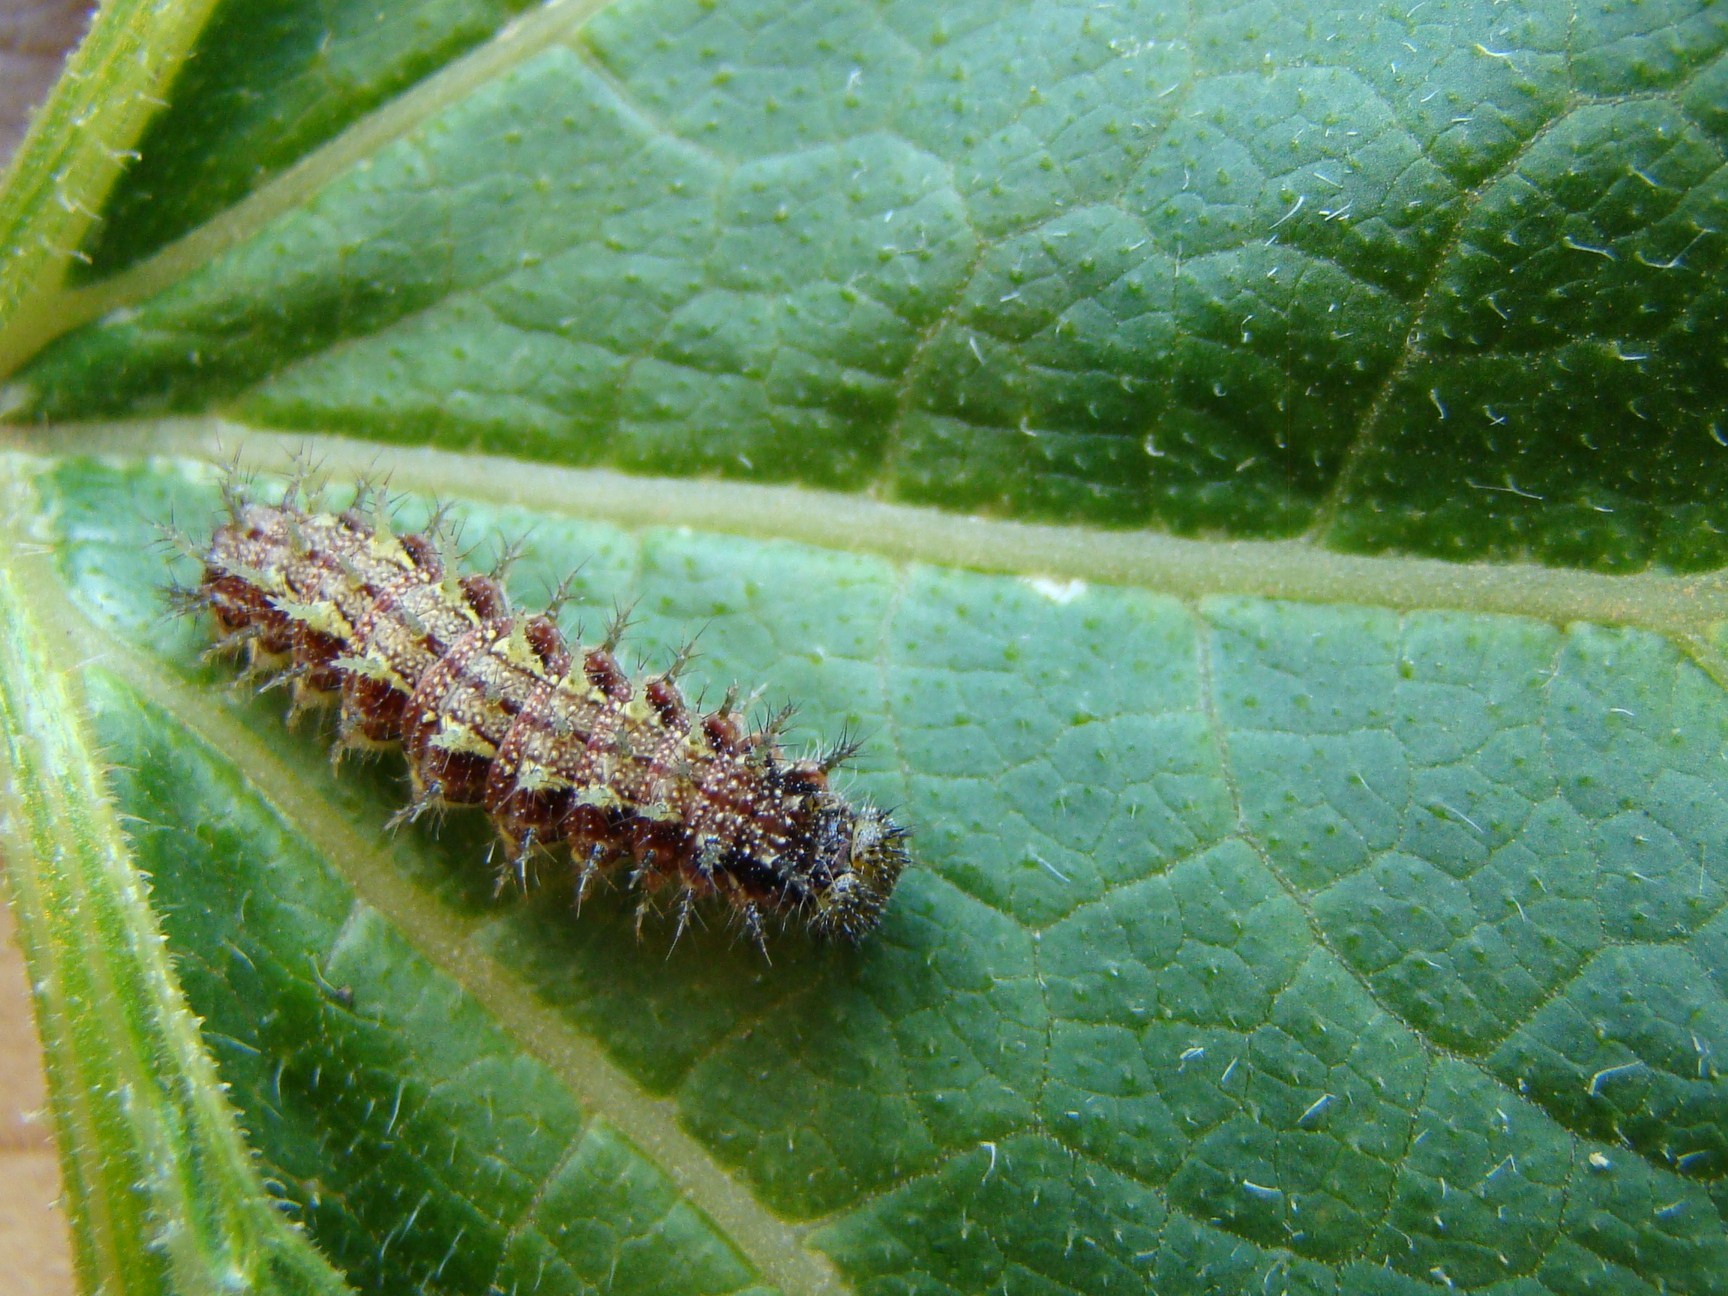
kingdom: Animalia
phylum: Arthropoda
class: Insecta
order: Lepidoptera
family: Nymphalidae
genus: Vanessa
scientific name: Vanessa itea
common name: Yellow admiral
